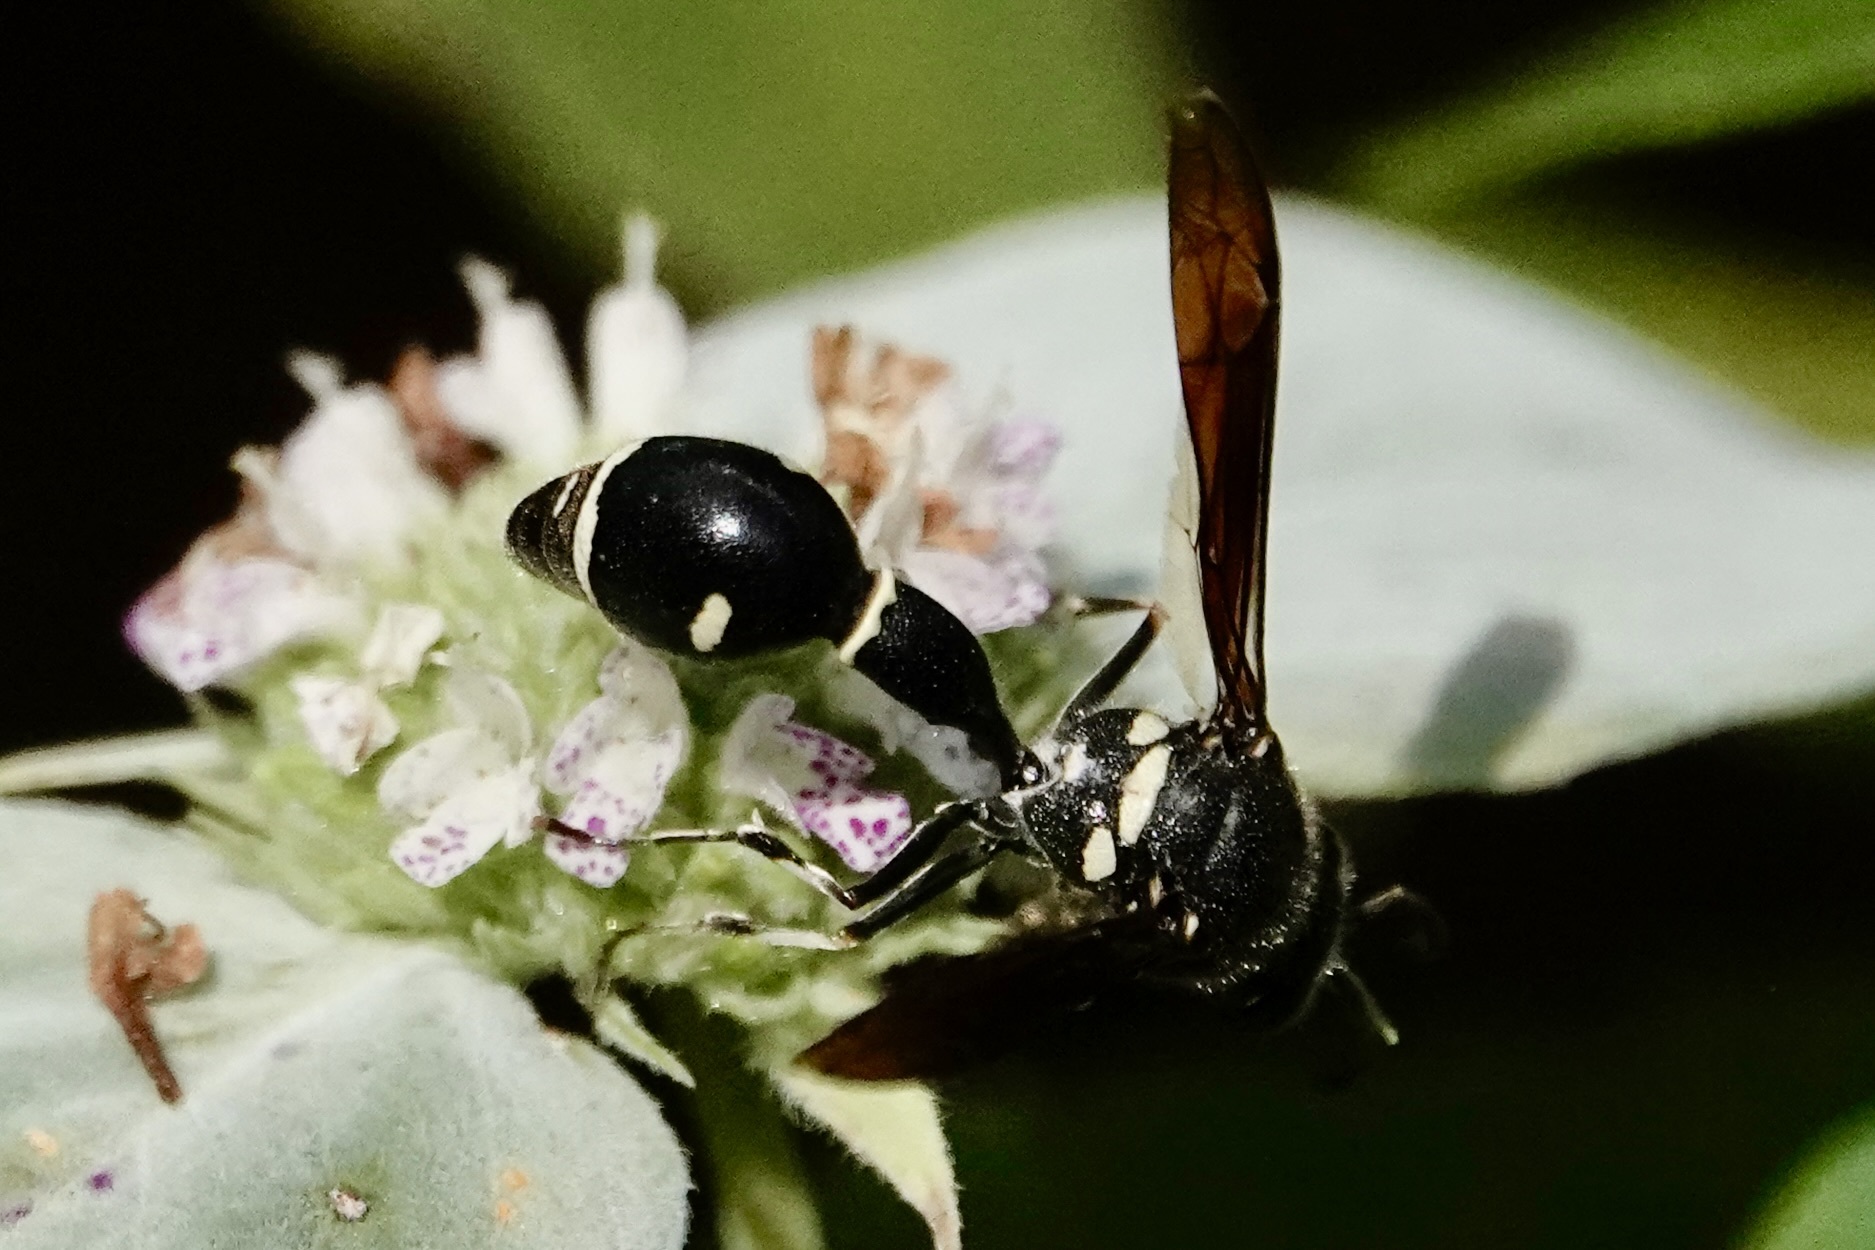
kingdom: Animalia
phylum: Arthropoda
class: Insecta
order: Hymenoptera
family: Vespidae
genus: Eumenes
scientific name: Eumenes fraternus
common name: Fraternal potter wasp
